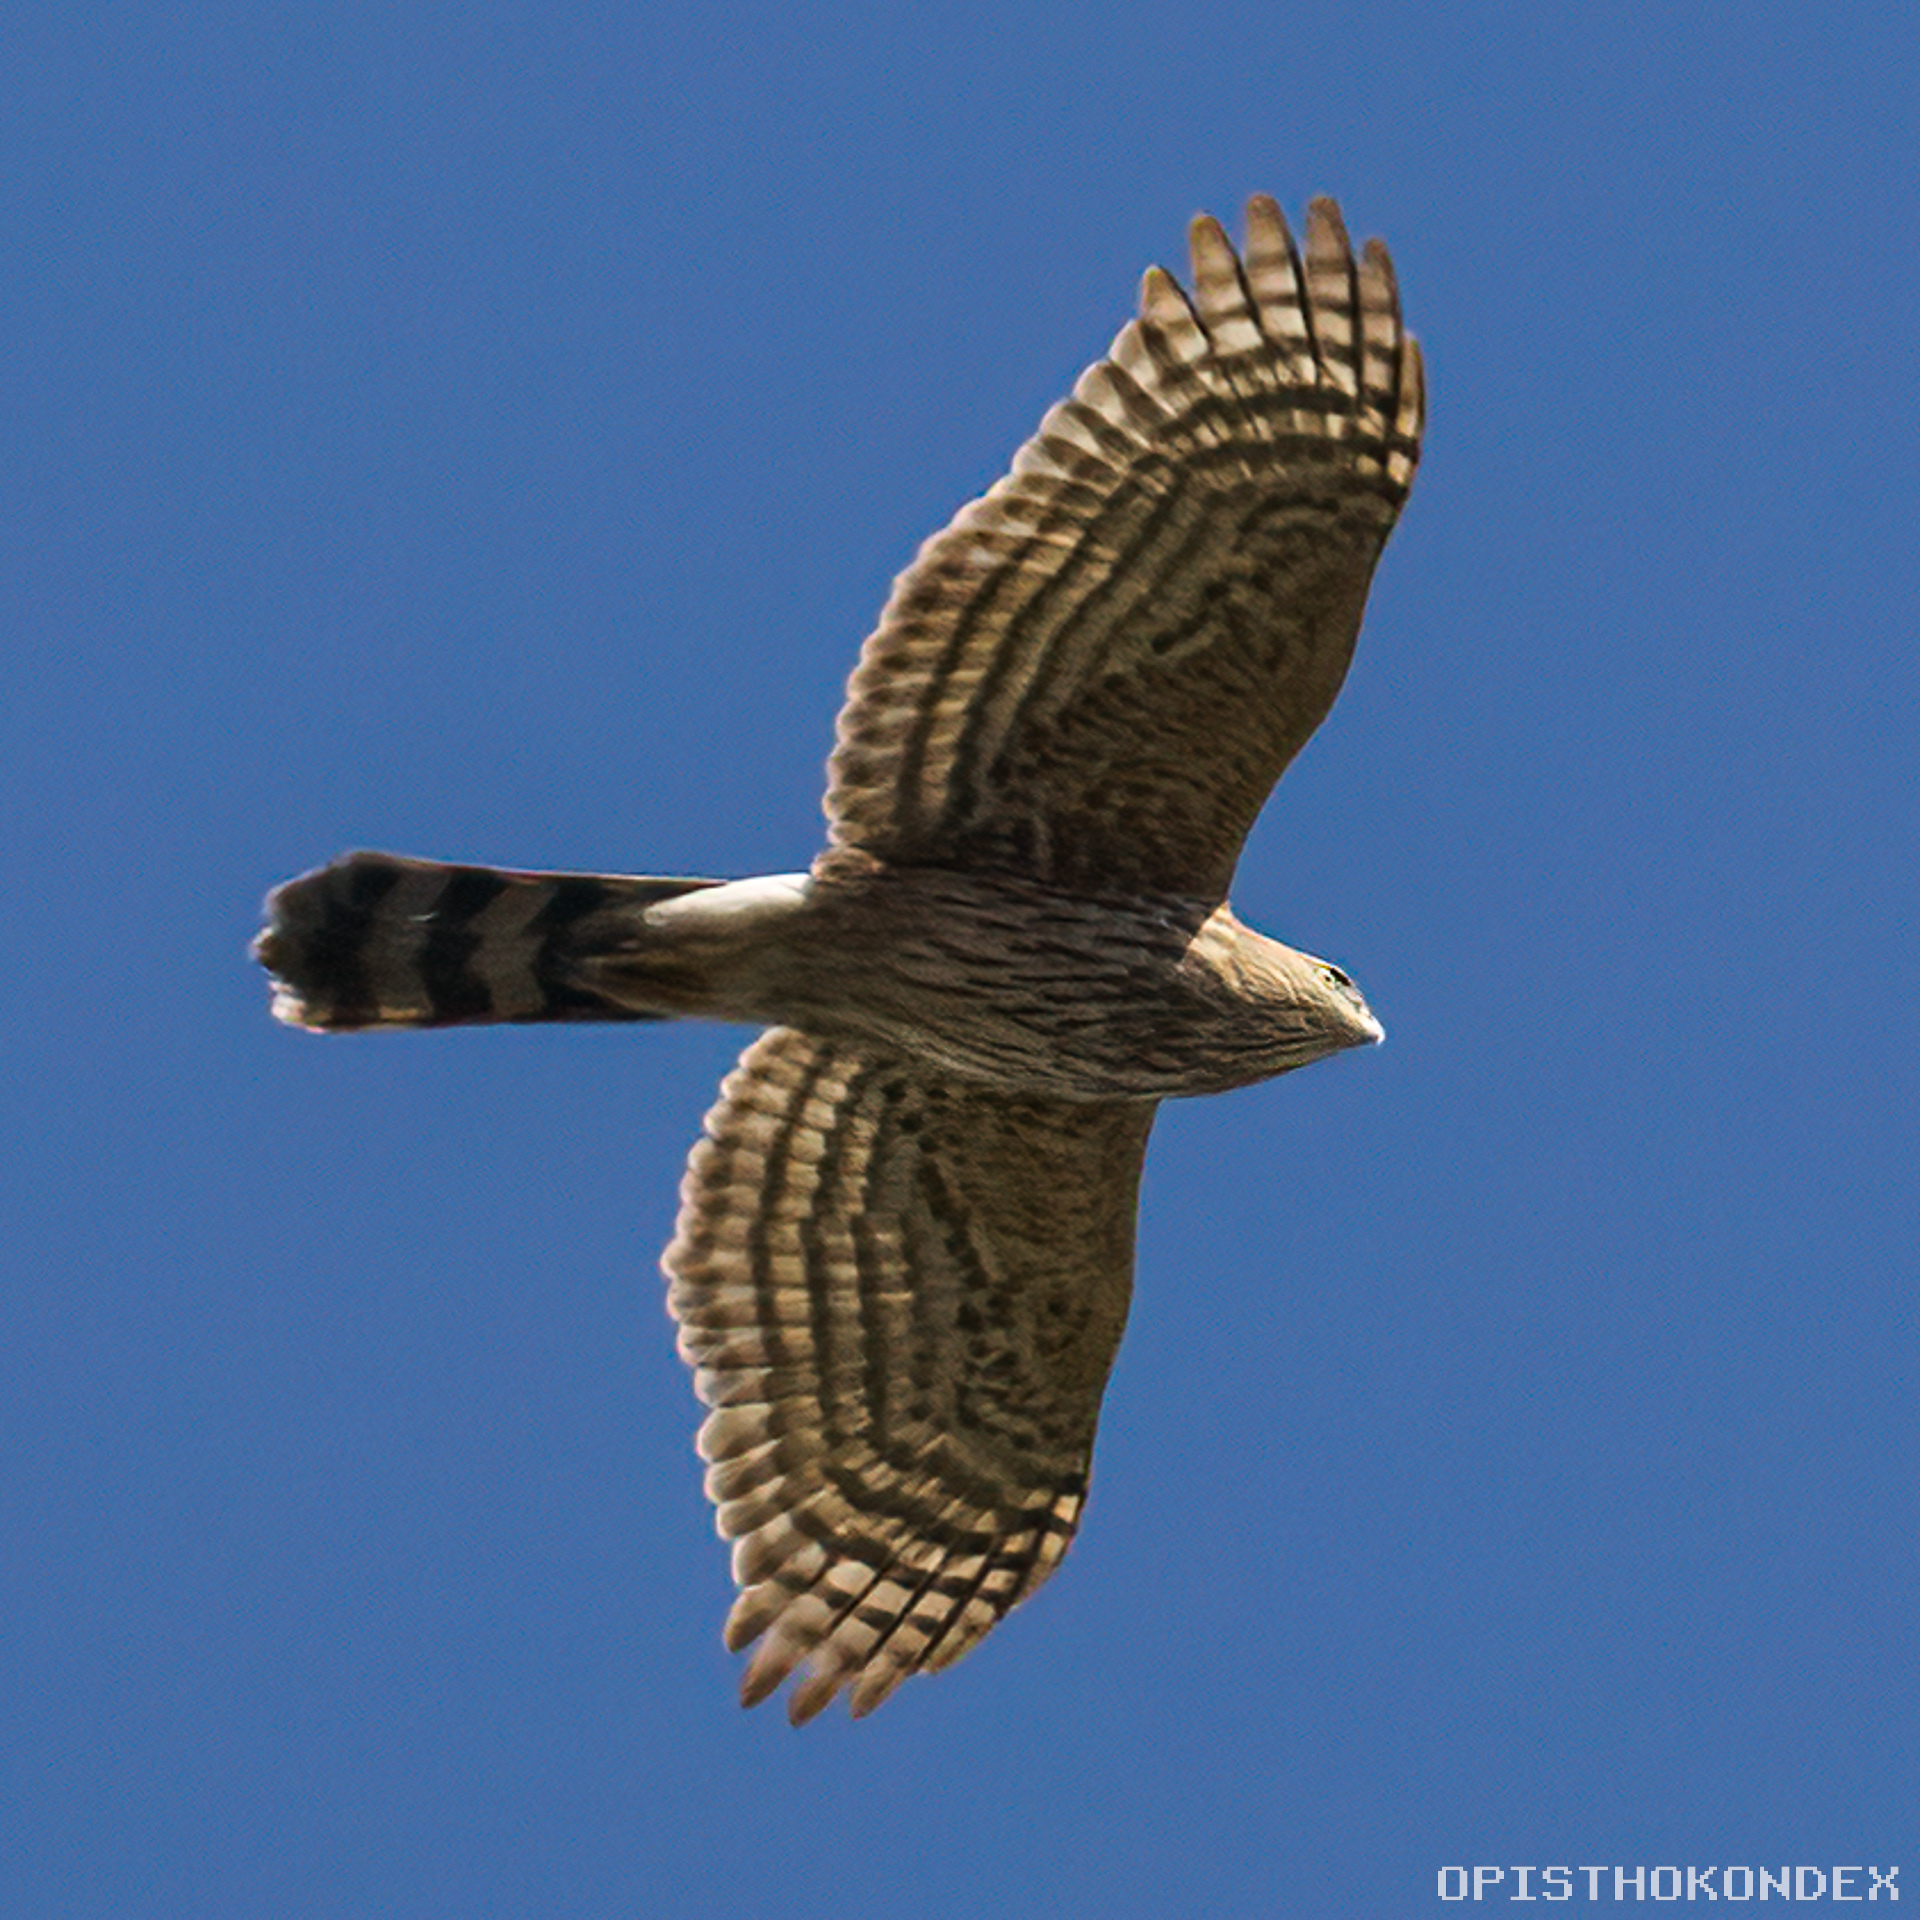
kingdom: Animalia
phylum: Chordata
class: Aves
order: Accipitriformes
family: Accipitridae
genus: Accipiter
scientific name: Accipiter cooperii
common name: Cooper's hawk
